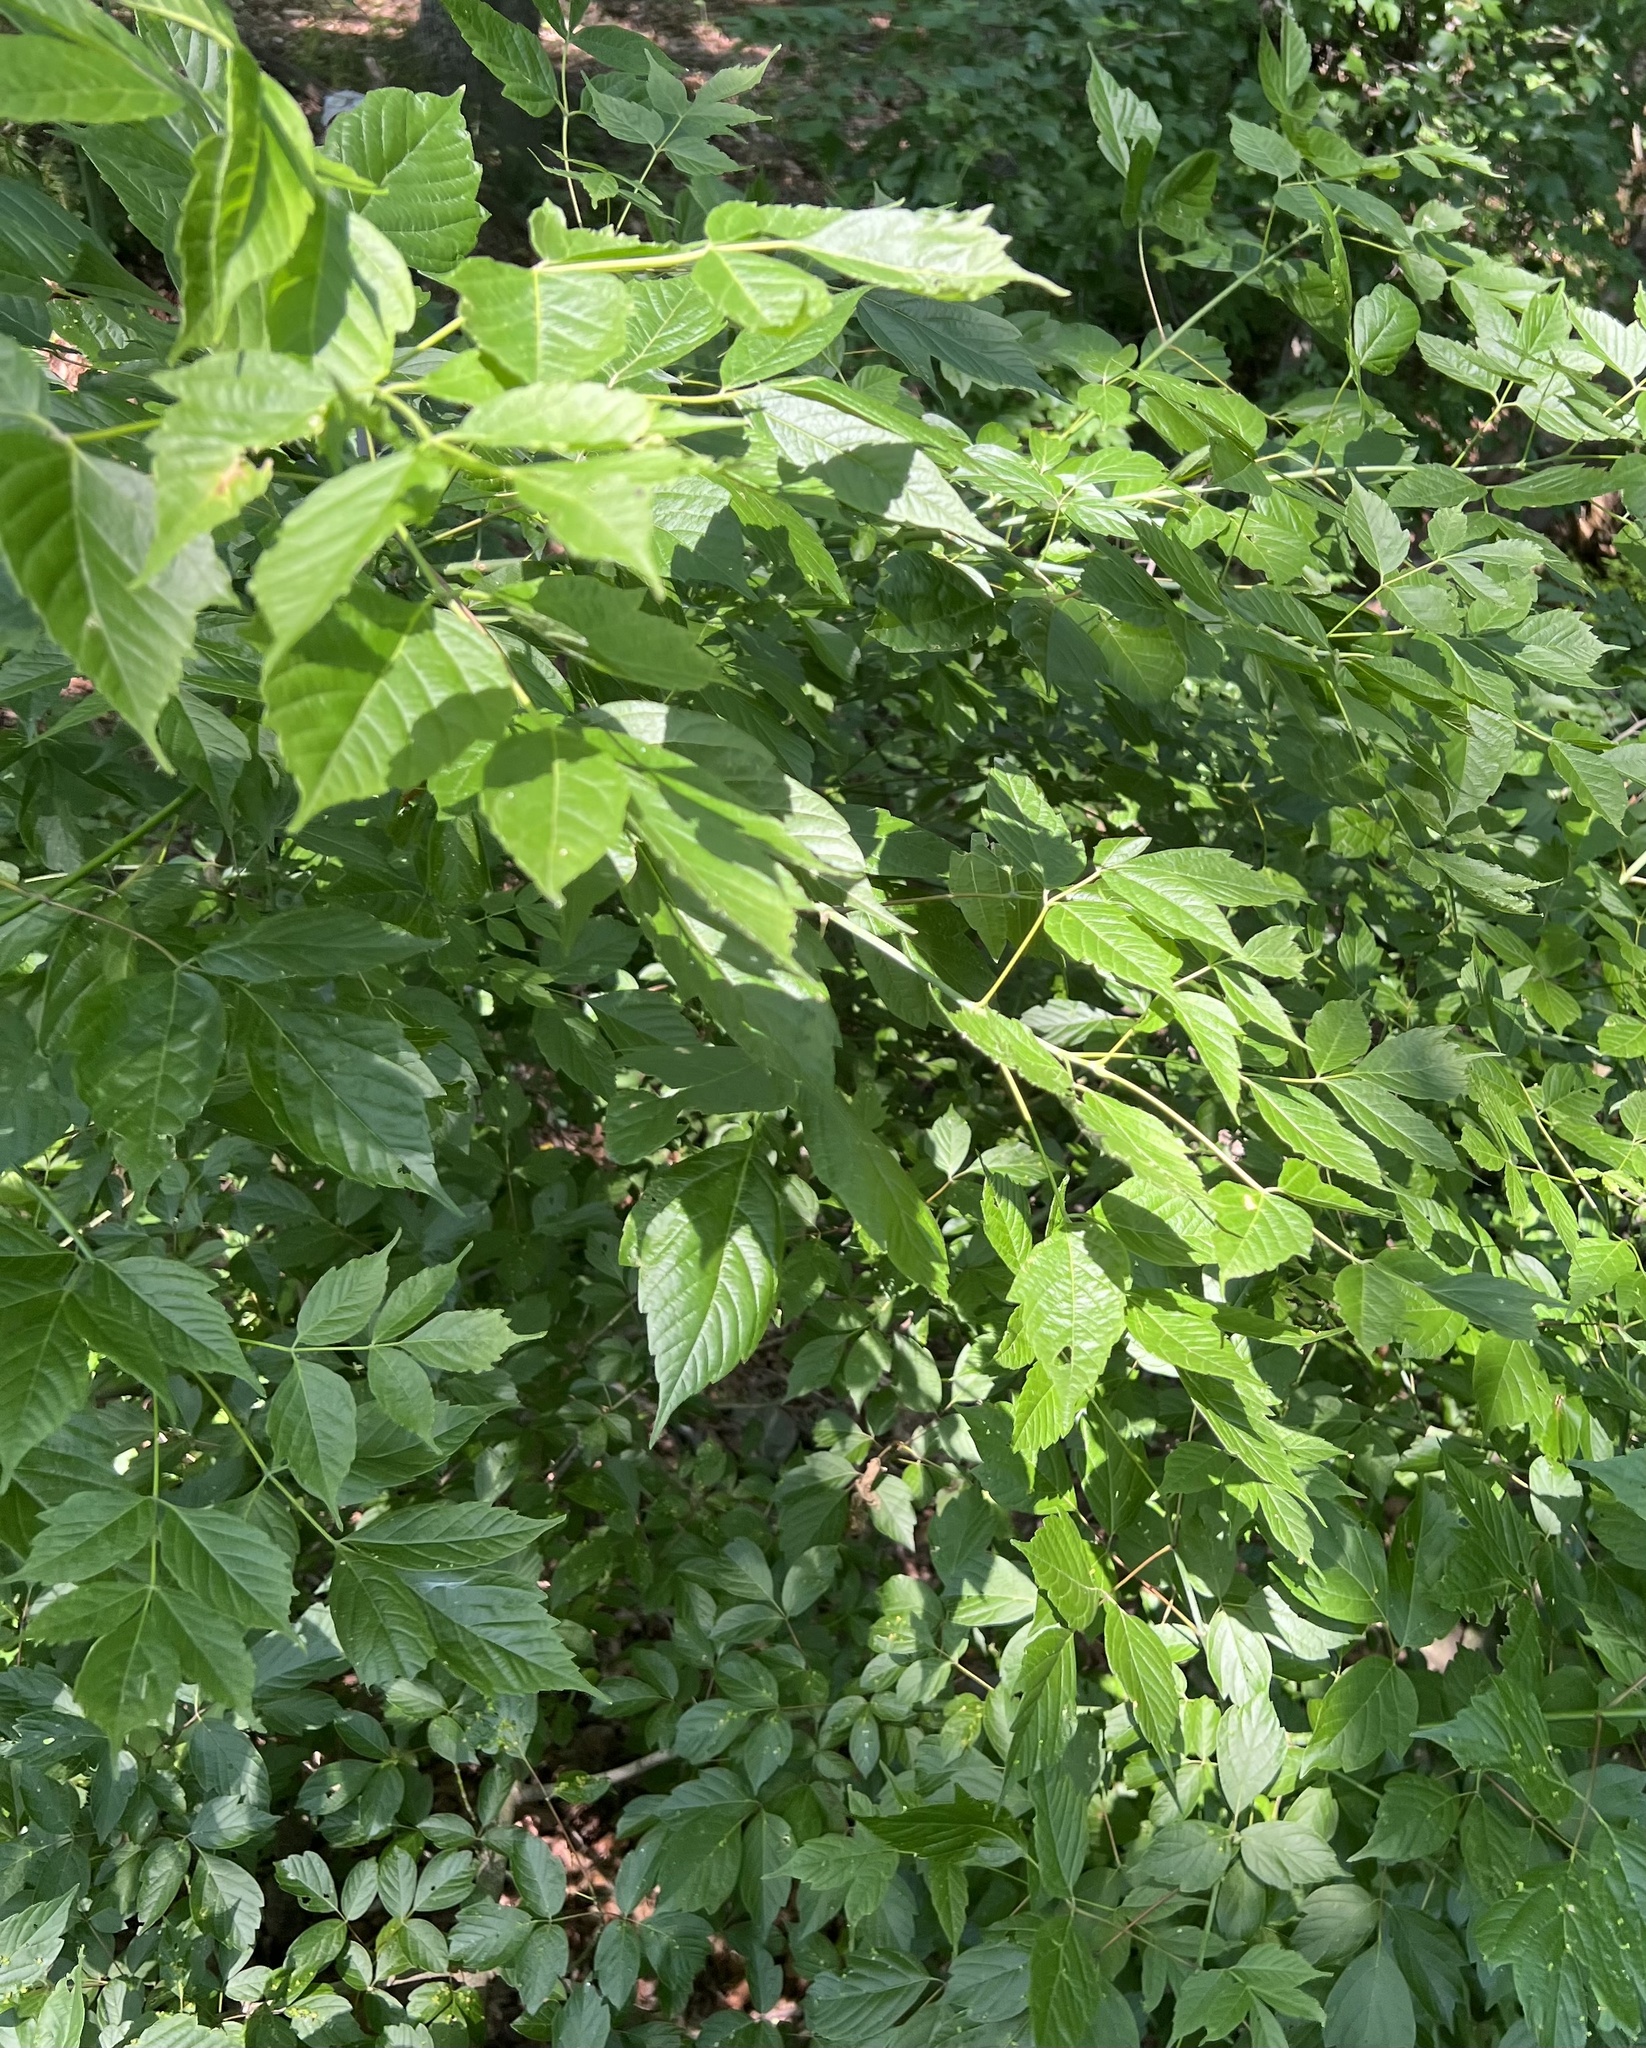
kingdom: Plantae
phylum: Tracheophyta
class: Magnoliopsida
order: Sapindales
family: Sapindaceae
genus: Acer
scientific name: Acer negundo
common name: Ashleaf maple
